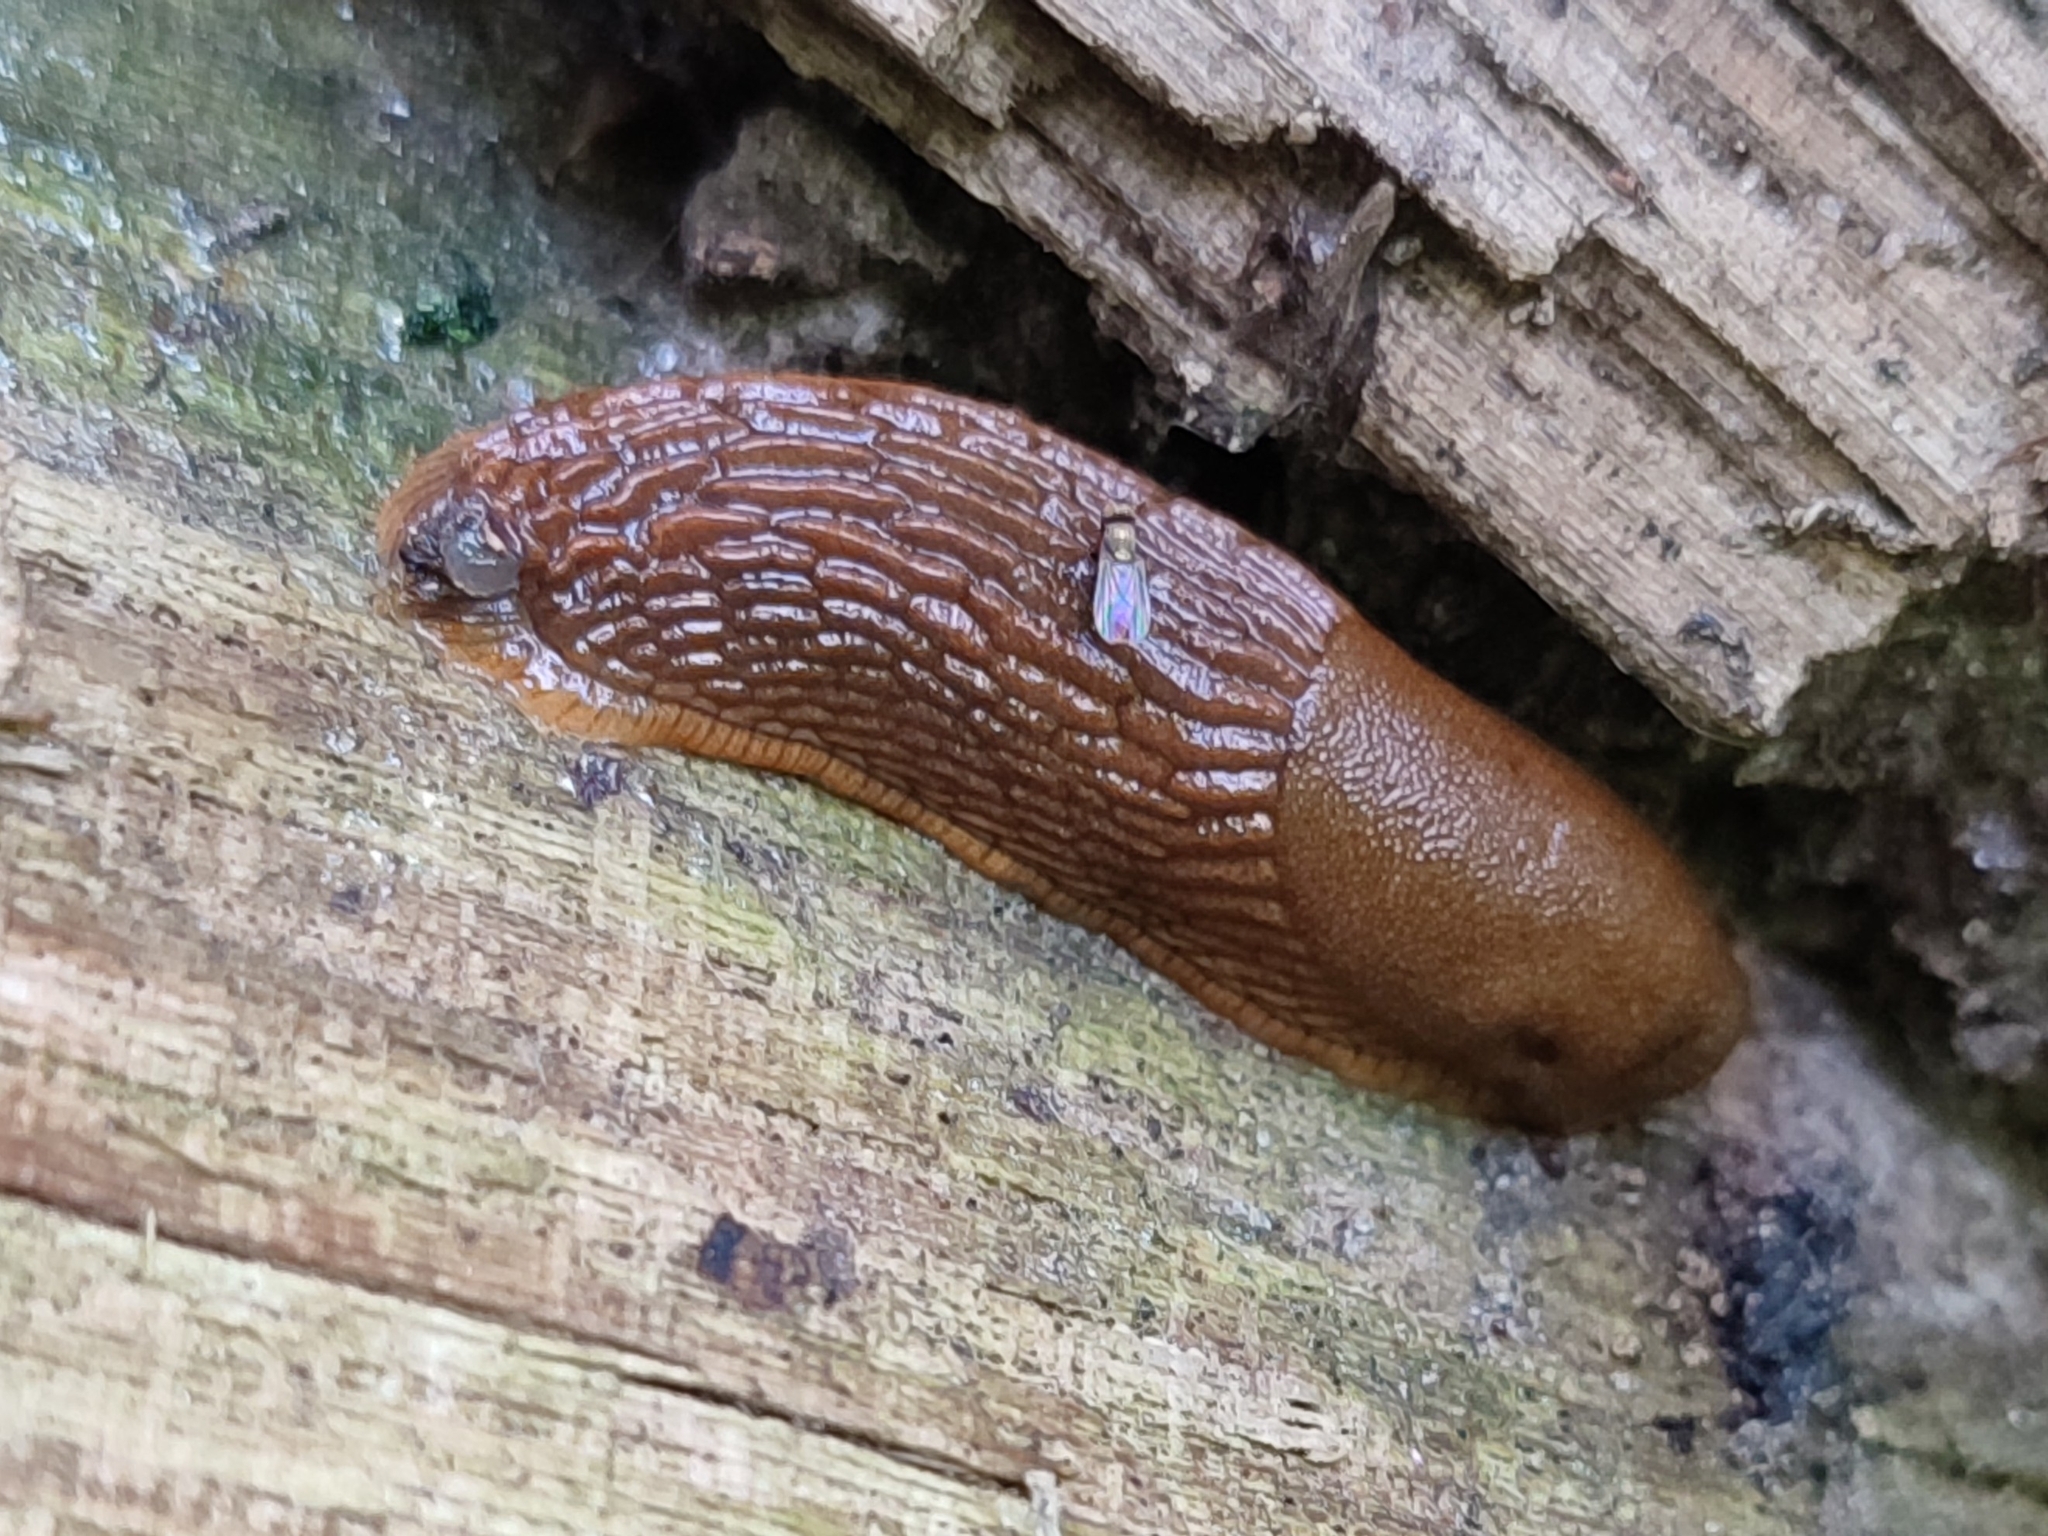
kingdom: Animalia
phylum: Mollusca
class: Gastropoda
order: Stylommatophora
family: Arionidae
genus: Arion
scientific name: Arion vulgaris
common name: Lusitanian slug
